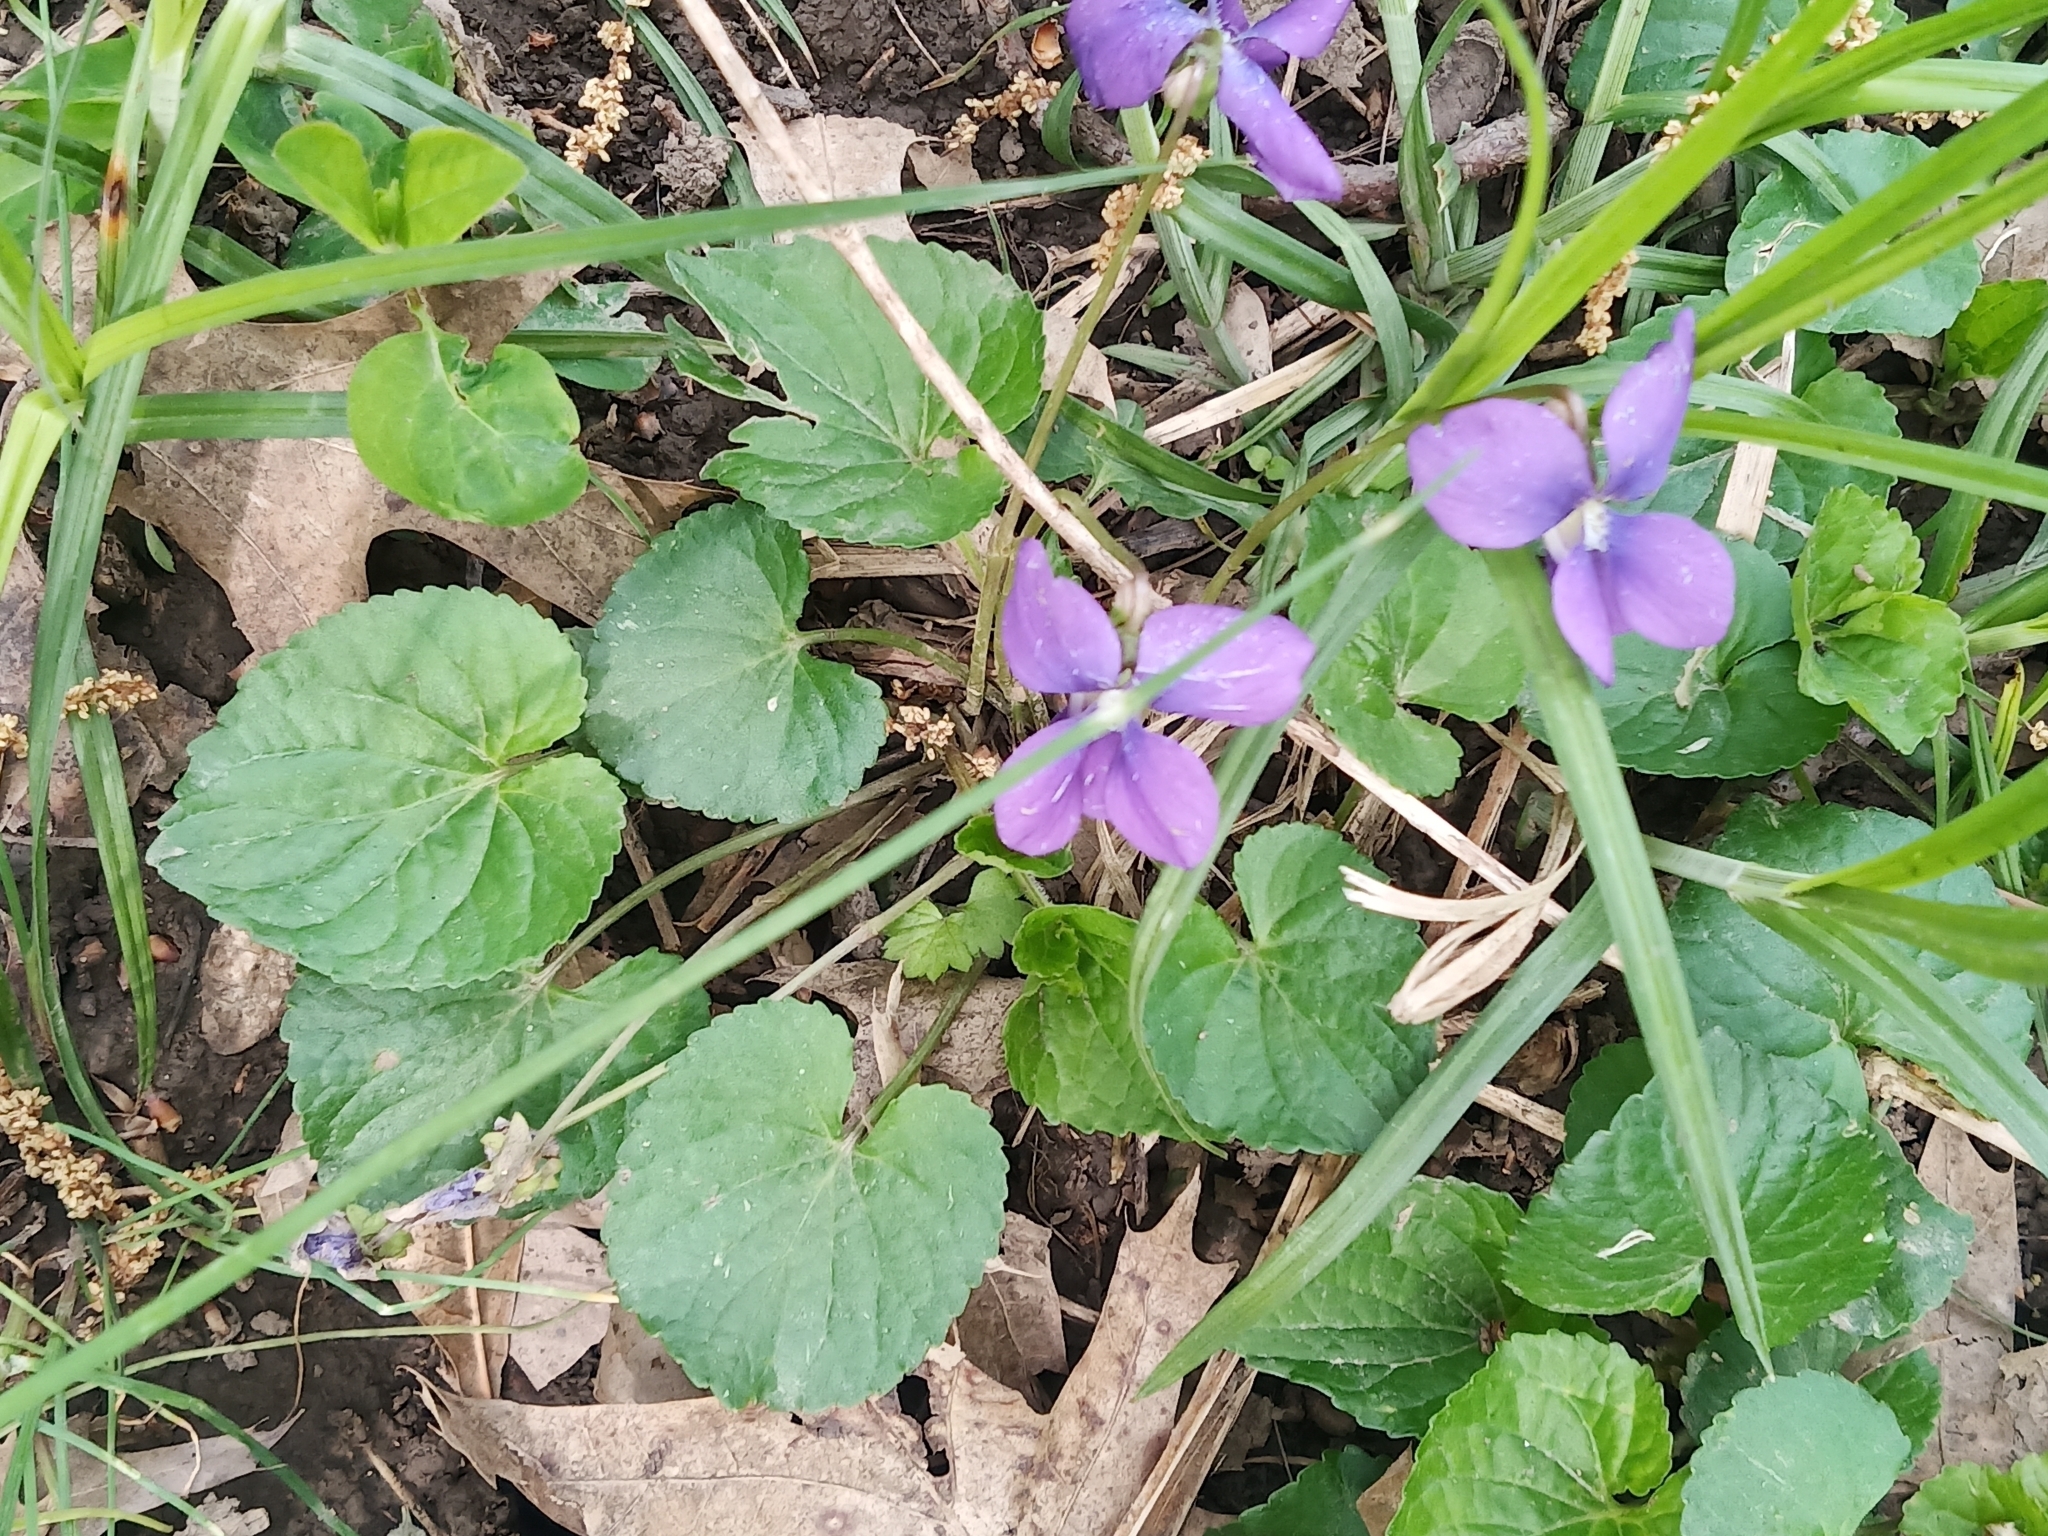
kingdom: Plantae
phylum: Tracheophyta
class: Magnoliopsida
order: Malpighiales
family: Violaceae
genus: Viola
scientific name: Viola sororia
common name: Dooryard violet
